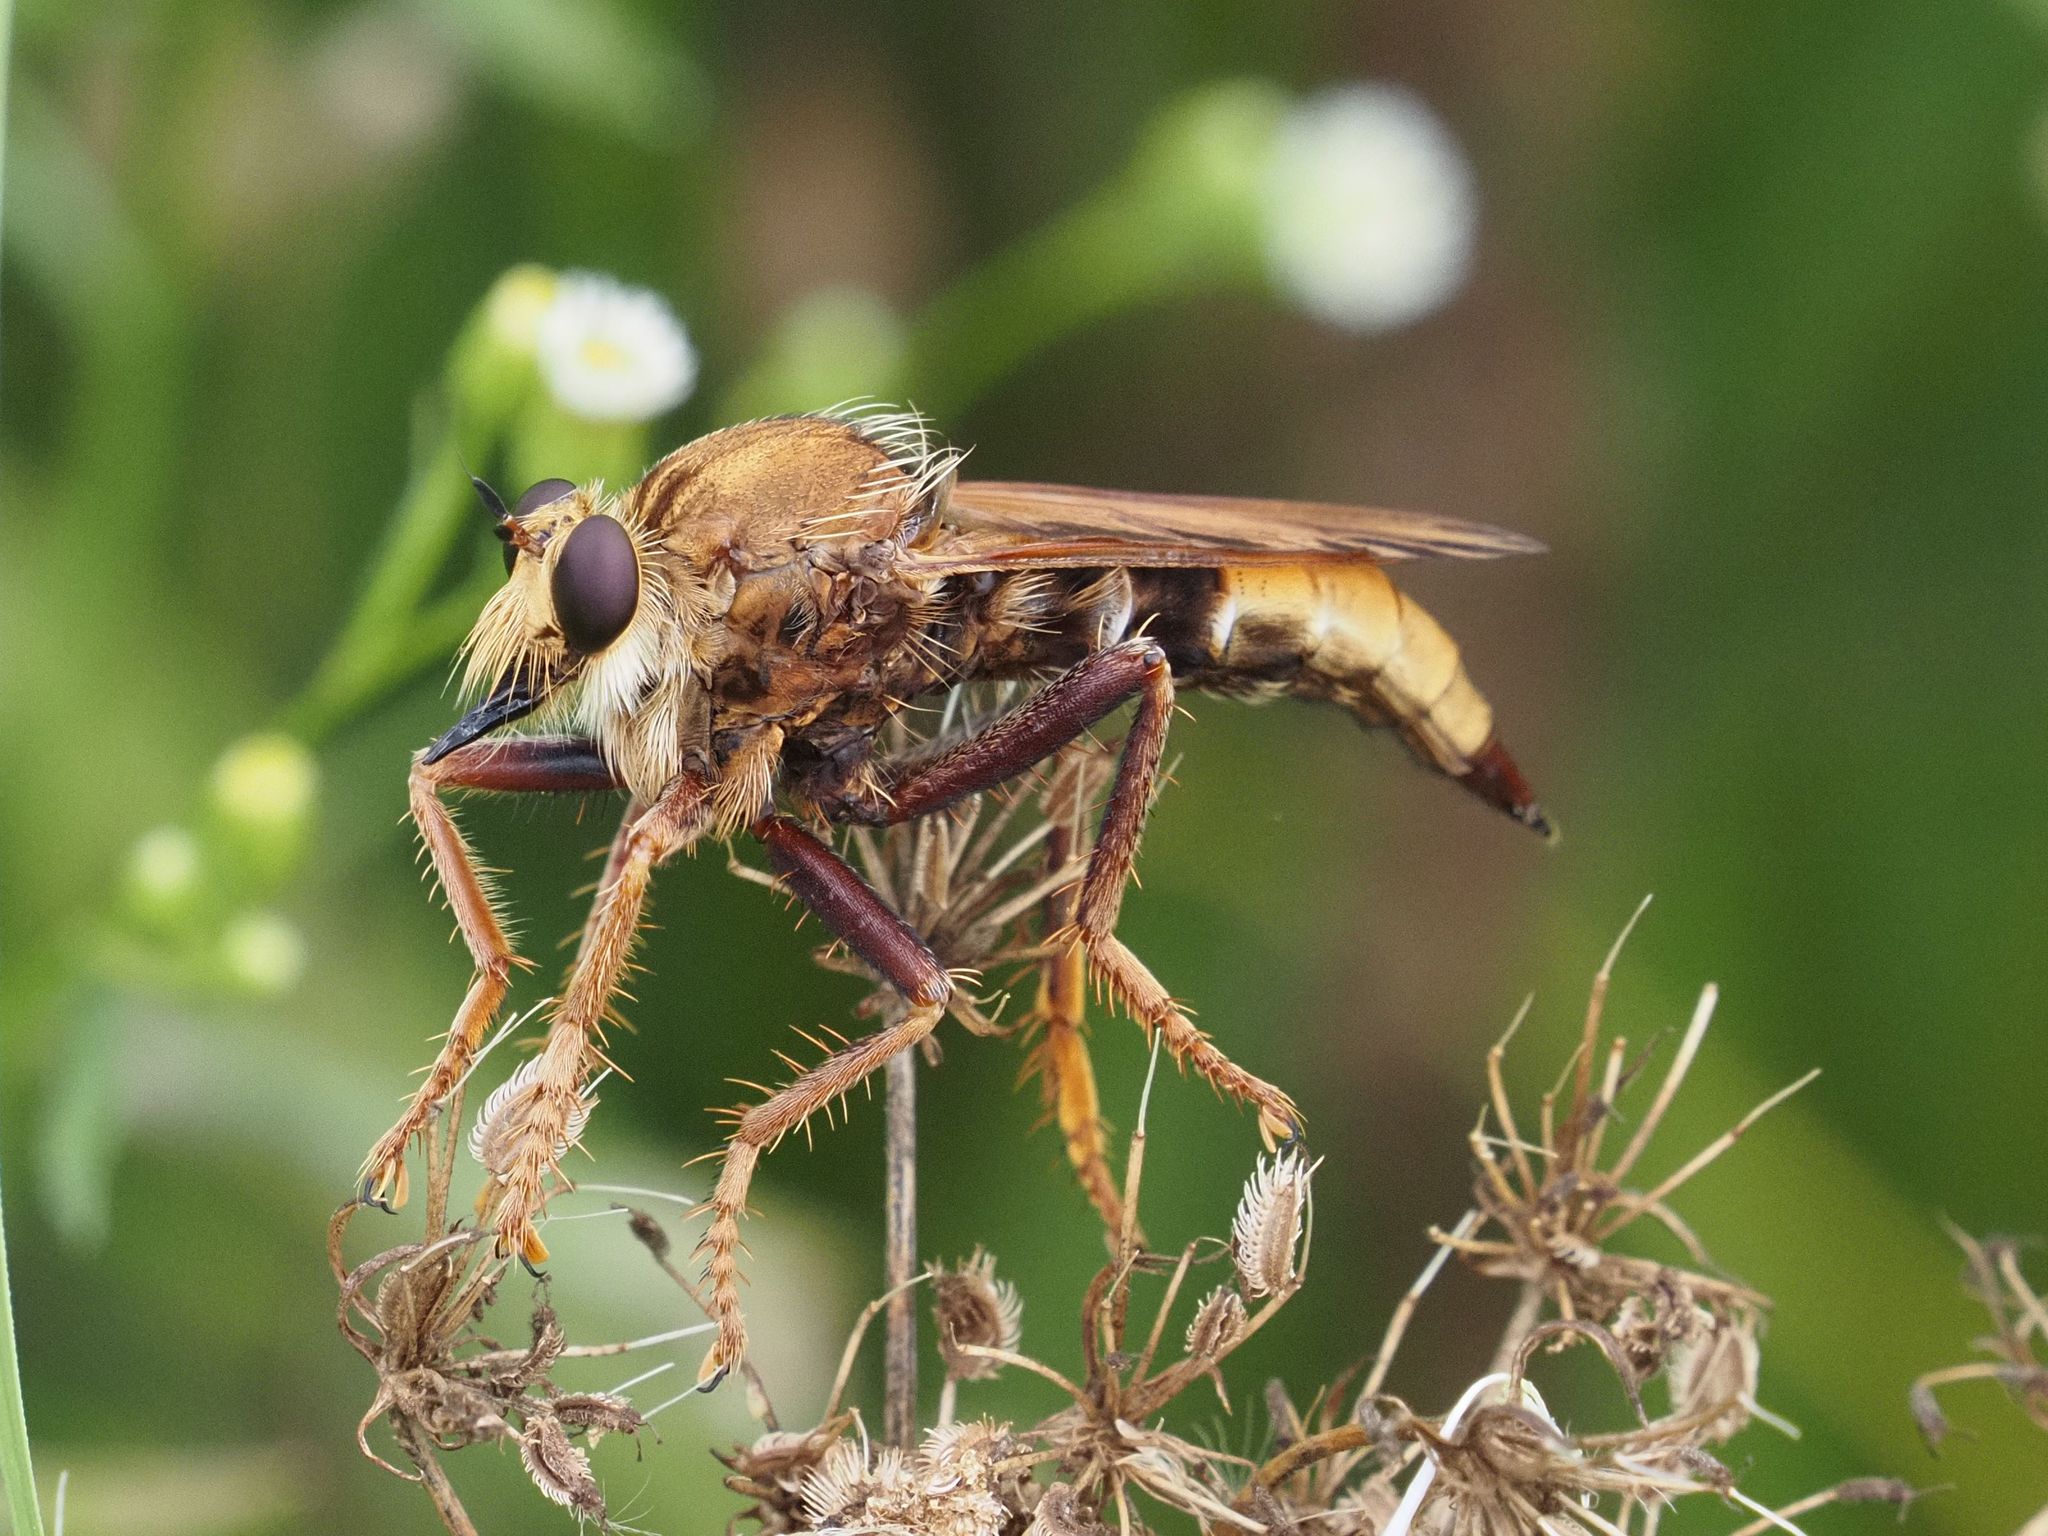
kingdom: Animalia
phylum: Arthropoda
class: Insecta
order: Diptera
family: Asilidae
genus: Asilus
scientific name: Asilus crabroniformis
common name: Hornet robberfly
